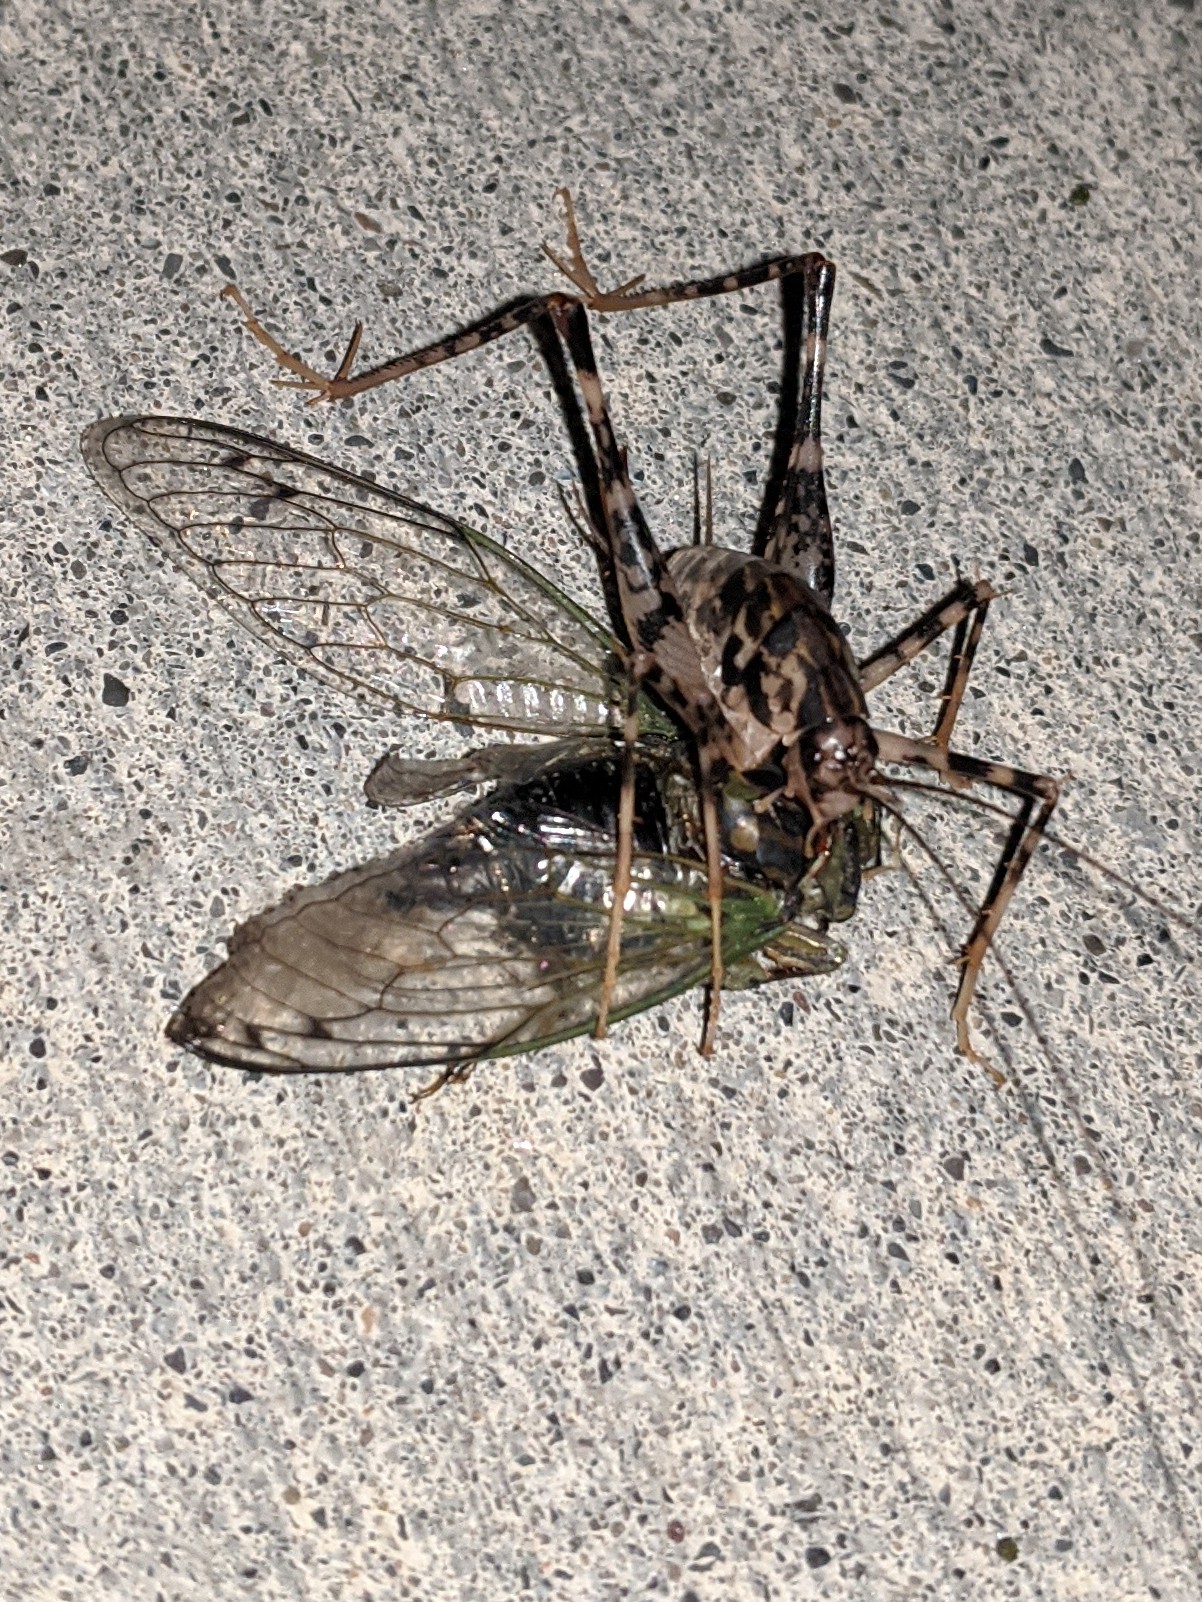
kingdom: Animalia
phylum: Arthropoda
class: Insecta
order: Orthoptera
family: Rhaphidophoridae
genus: Diestrammena
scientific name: Diestrammena japanica
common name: Japanese camel cricket
